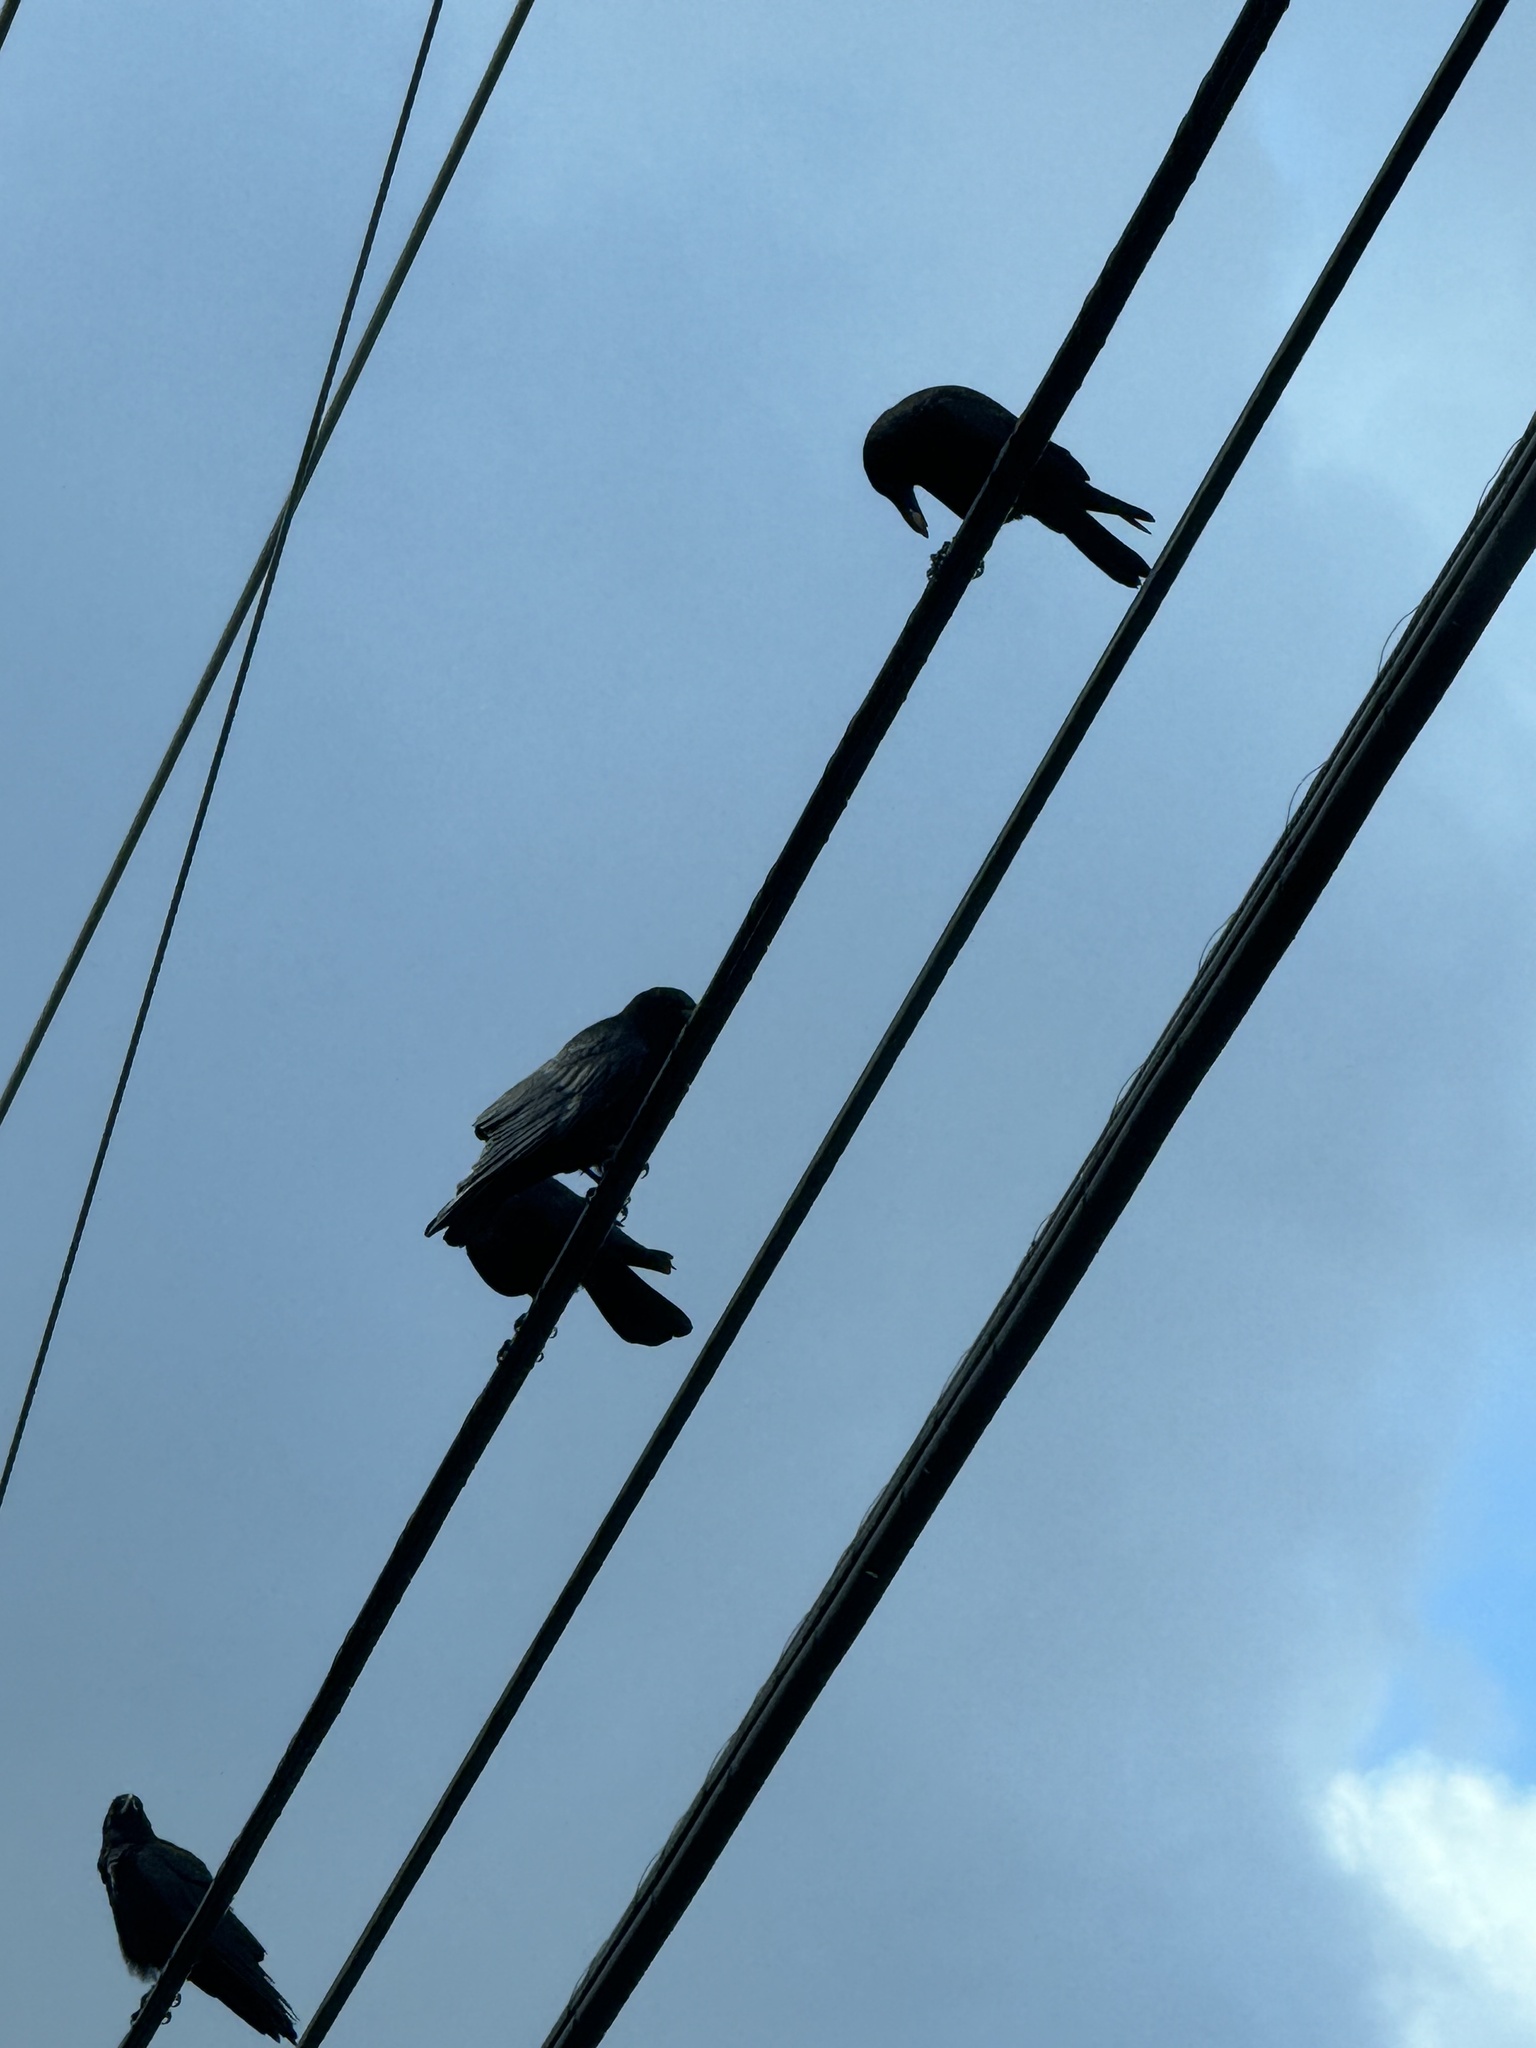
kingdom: Animalia
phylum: Chordata
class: Aves
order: Passeriformes
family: Corvidae
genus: Corvus
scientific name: Corvus brachyrhynchos
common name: American crow
